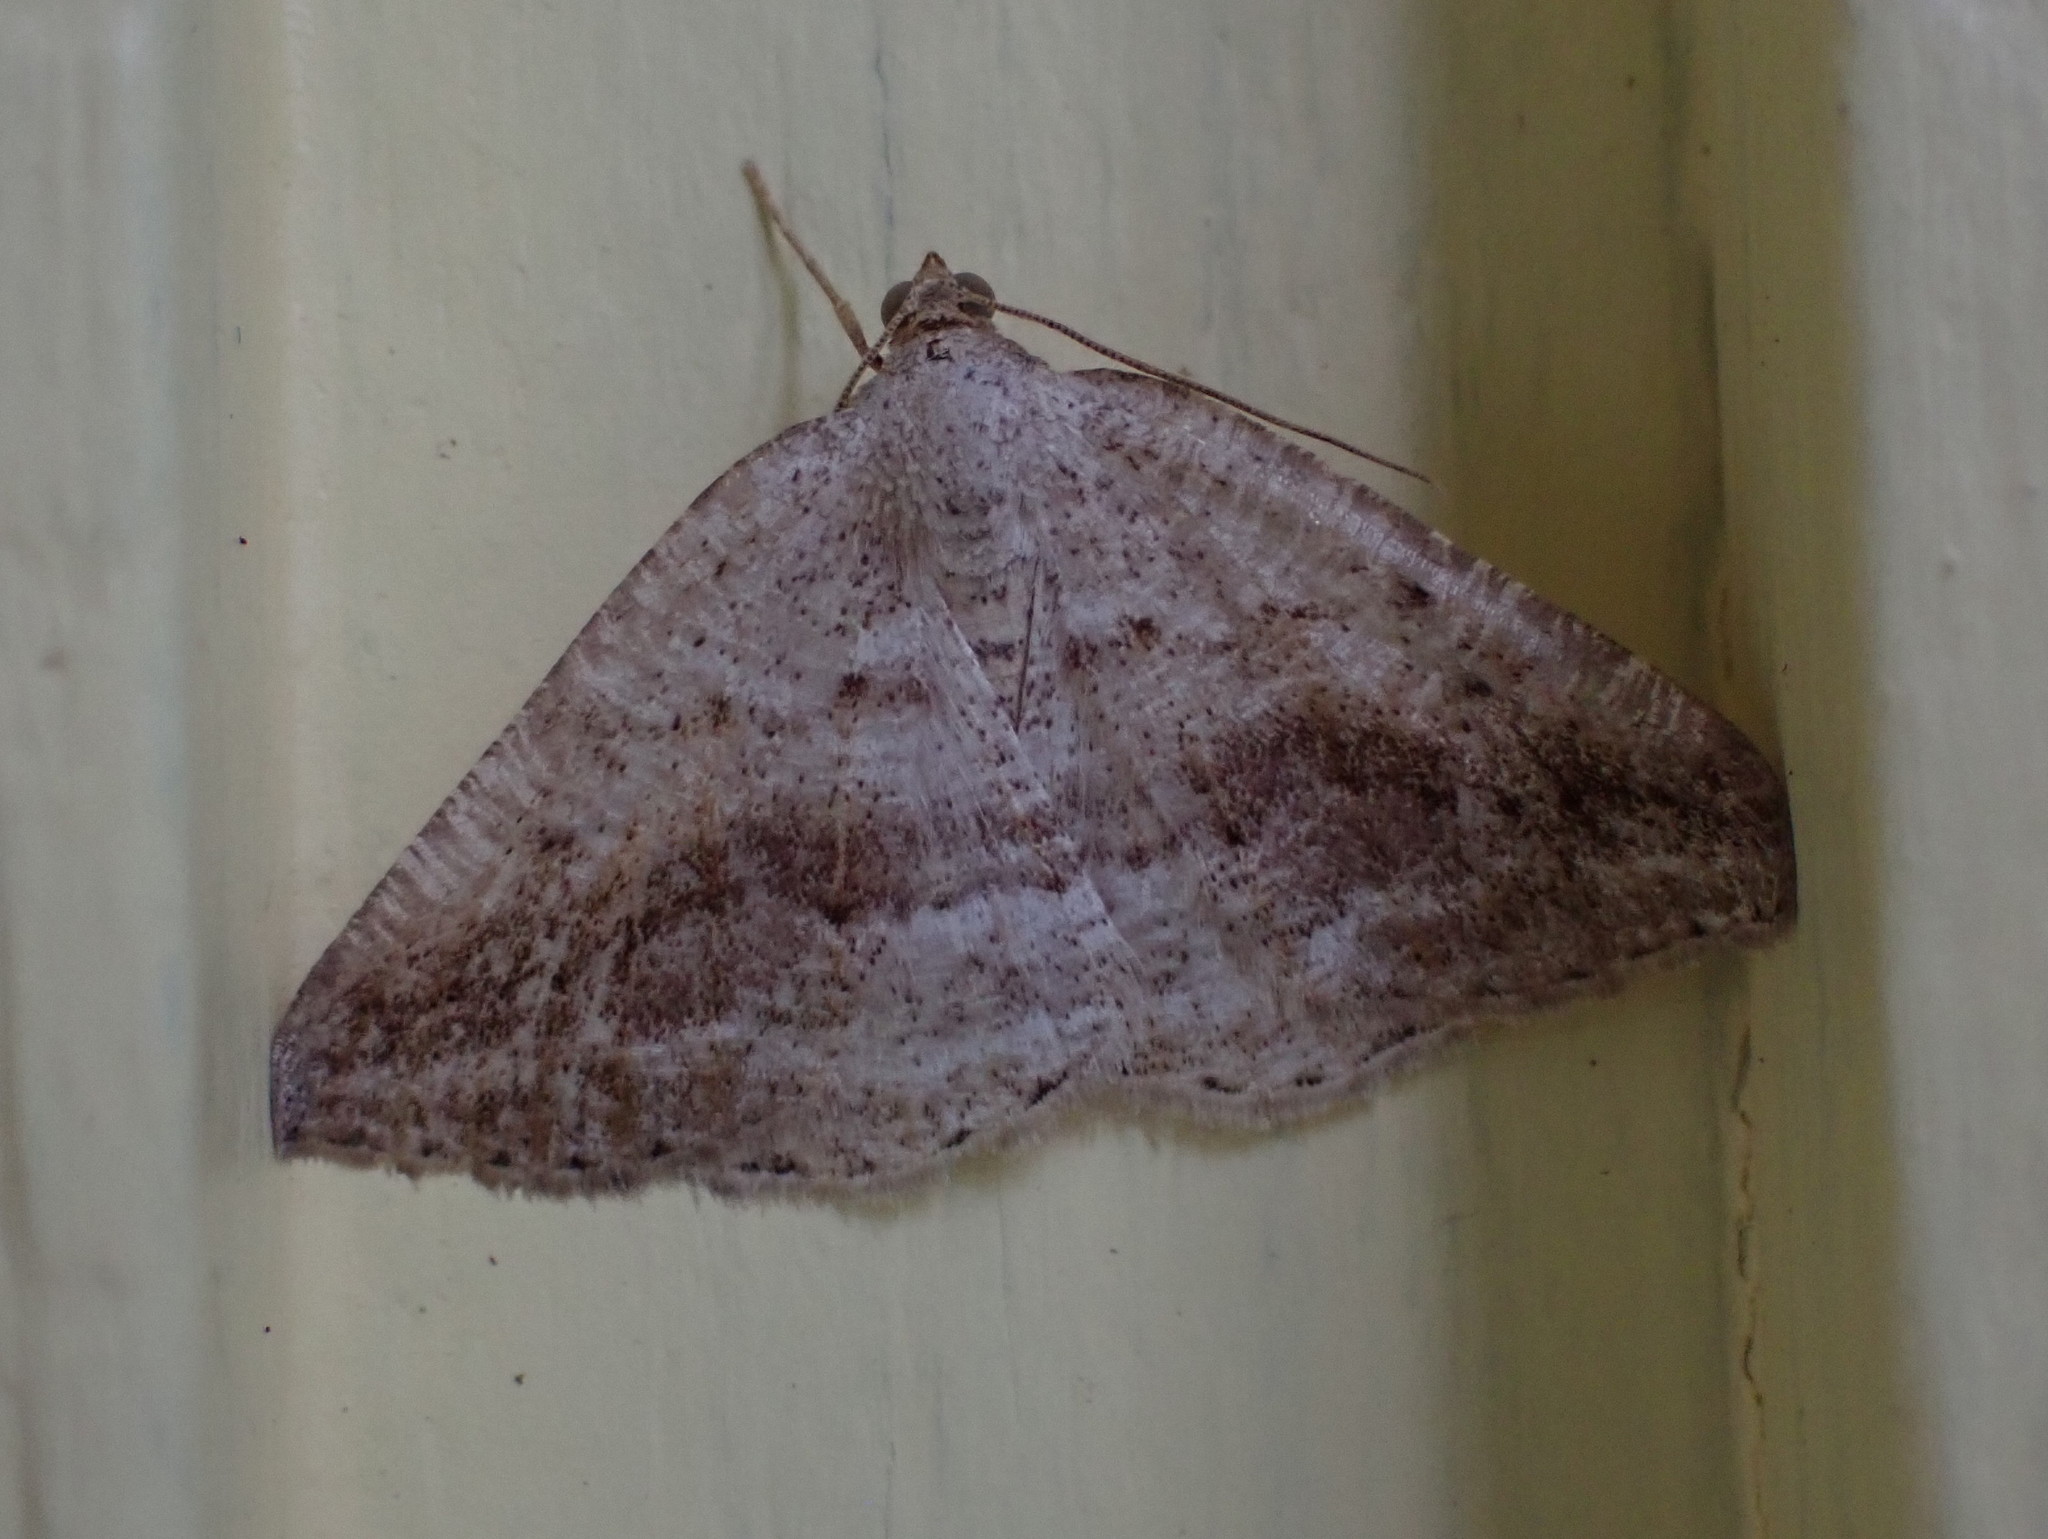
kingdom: Animalia
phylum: Arthropoda
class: Insecta
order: Lepidoptera
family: Geometridae
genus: Tacparia
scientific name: Tacparia detersata
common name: Pale alder moth
